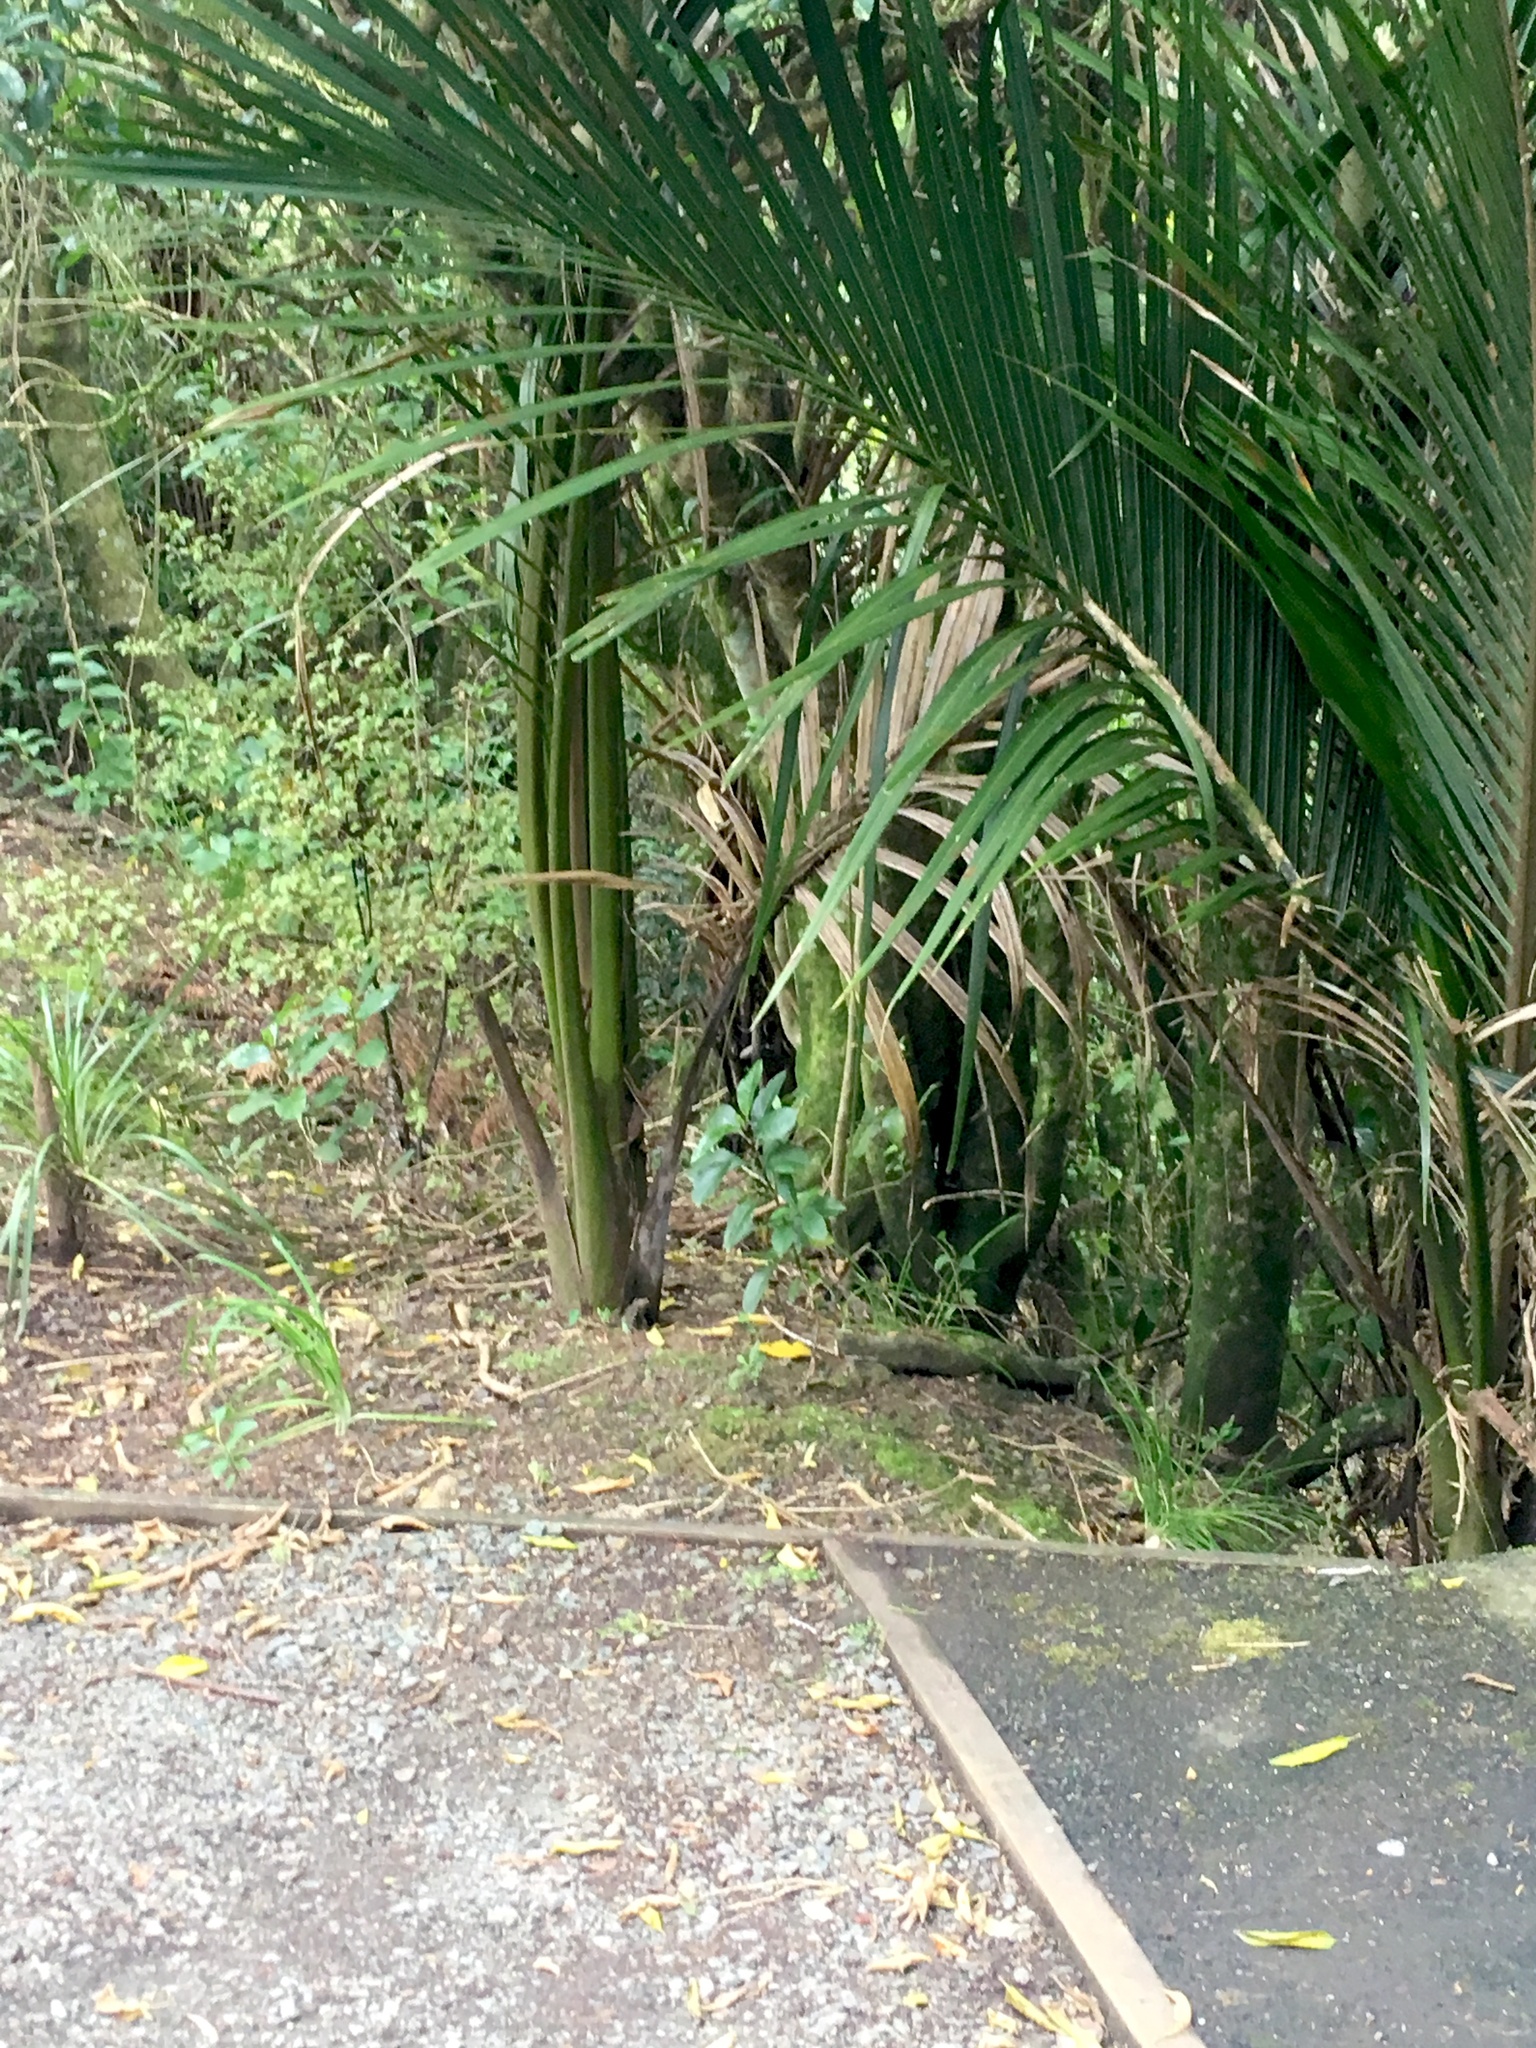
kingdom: Plantae
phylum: Tracheophyta
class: Liliopsida
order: Arecales
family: Arecaceae
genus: Rhopalostylis
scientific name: Rhopalostylis sapida
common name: Feather-duster palm
